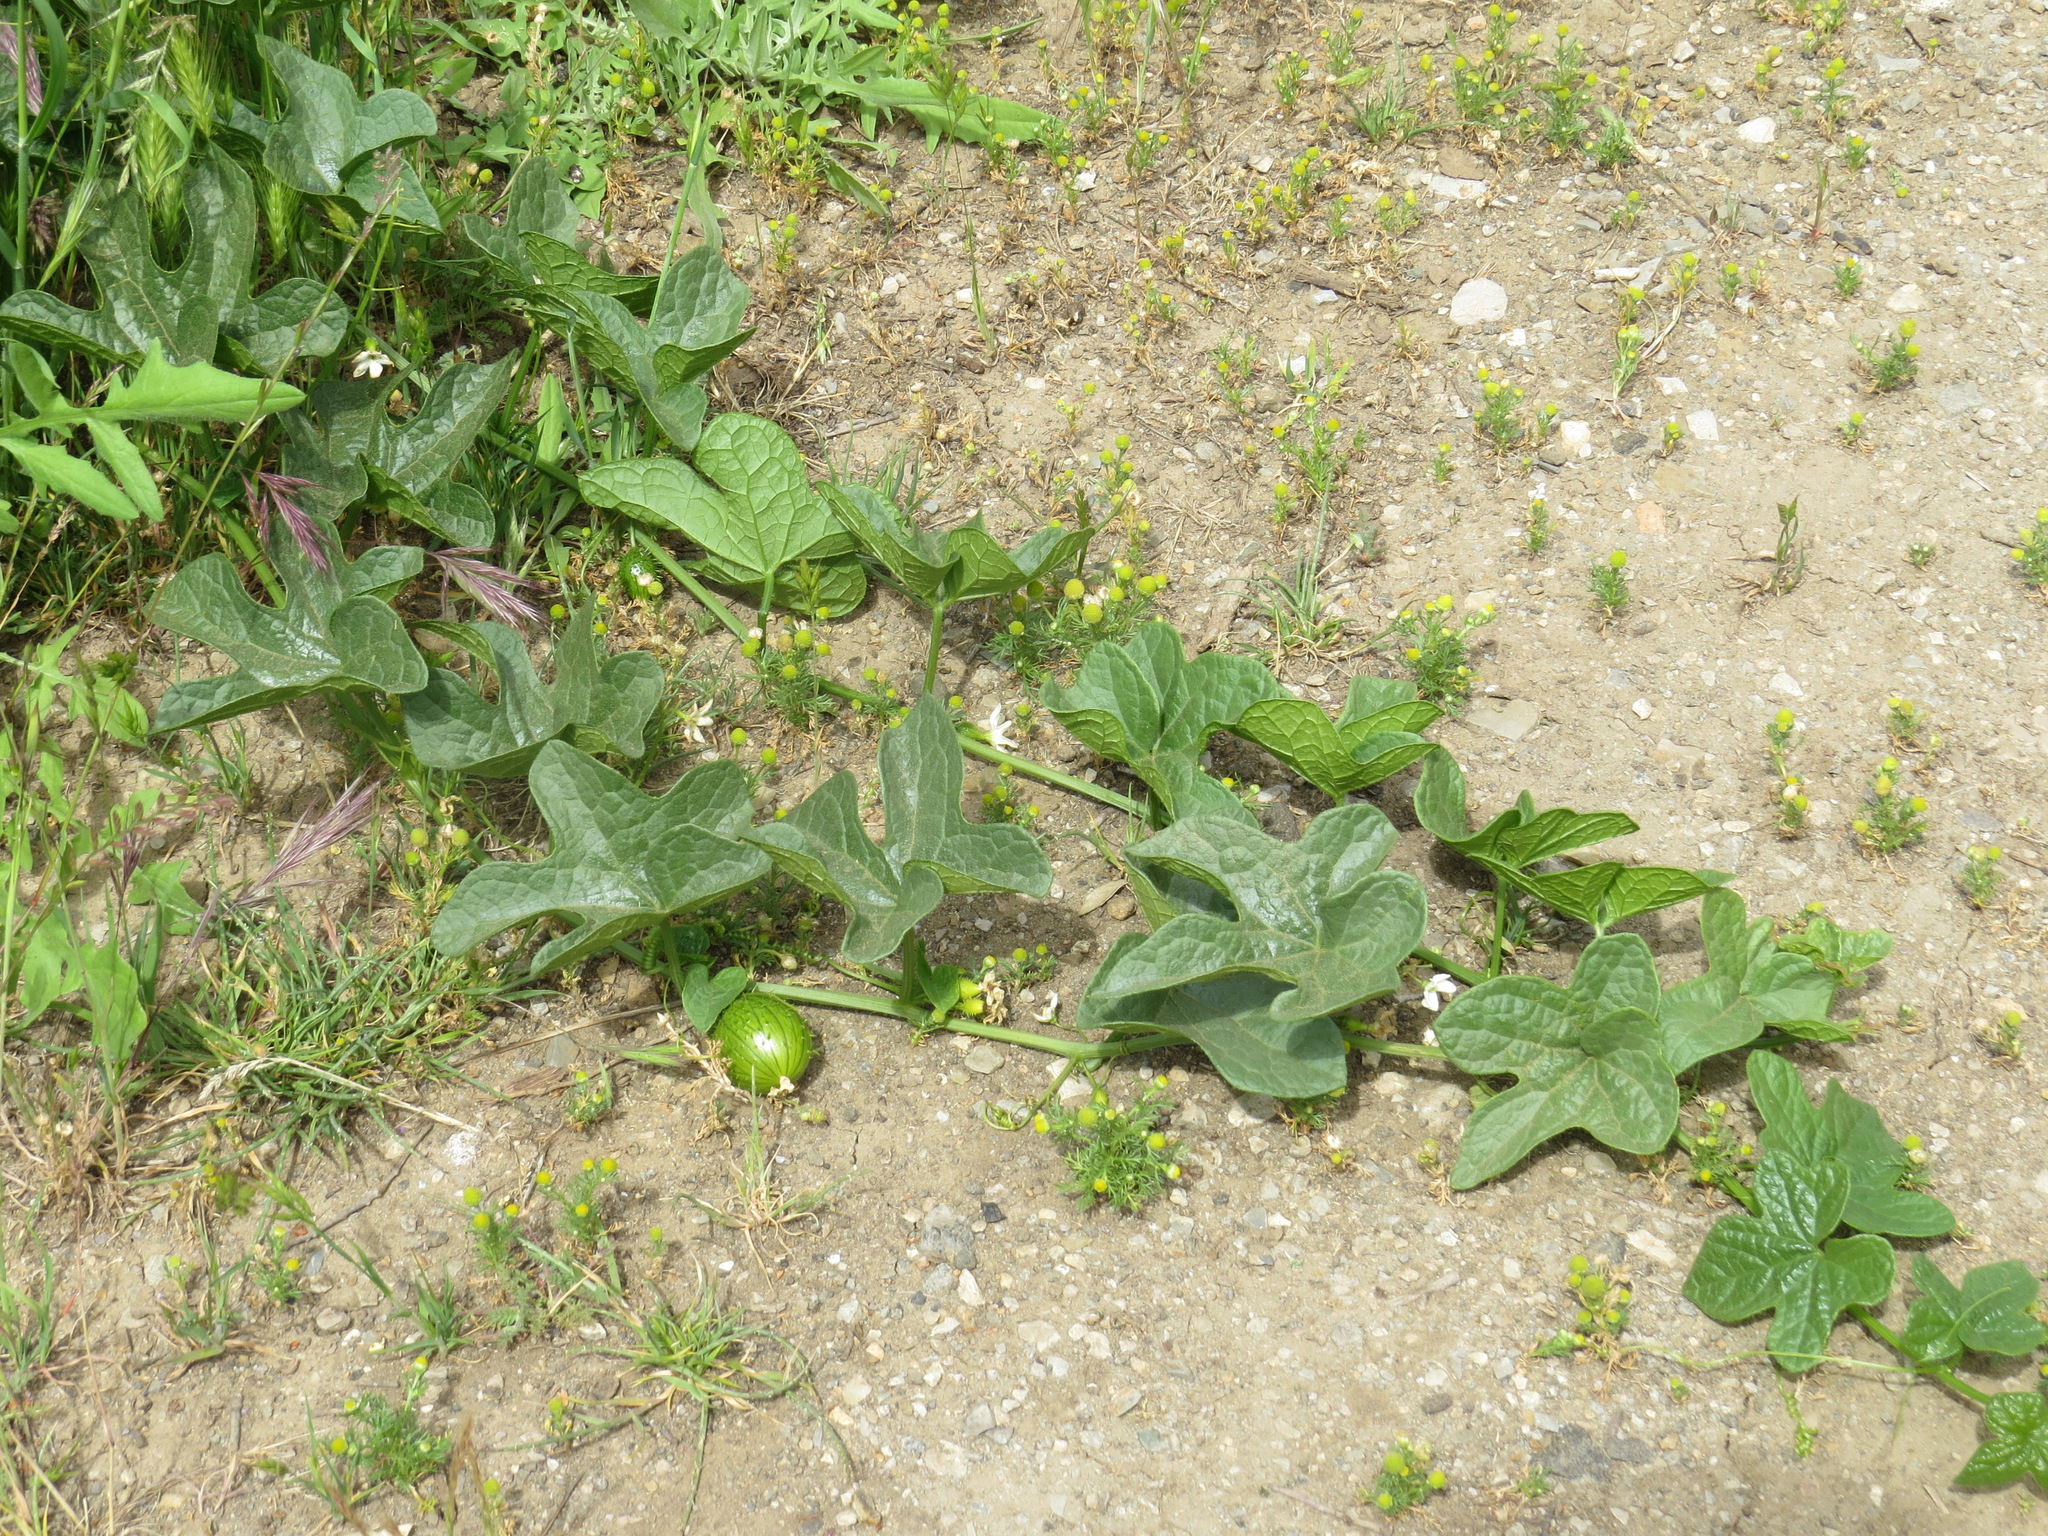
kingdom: Plantae
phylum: Tracheophyta
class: Magnoliopsida
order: Cucurbitales
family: Cucurbitaceae
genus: Marah
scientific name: Marah oregana
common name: Coastal manroot
